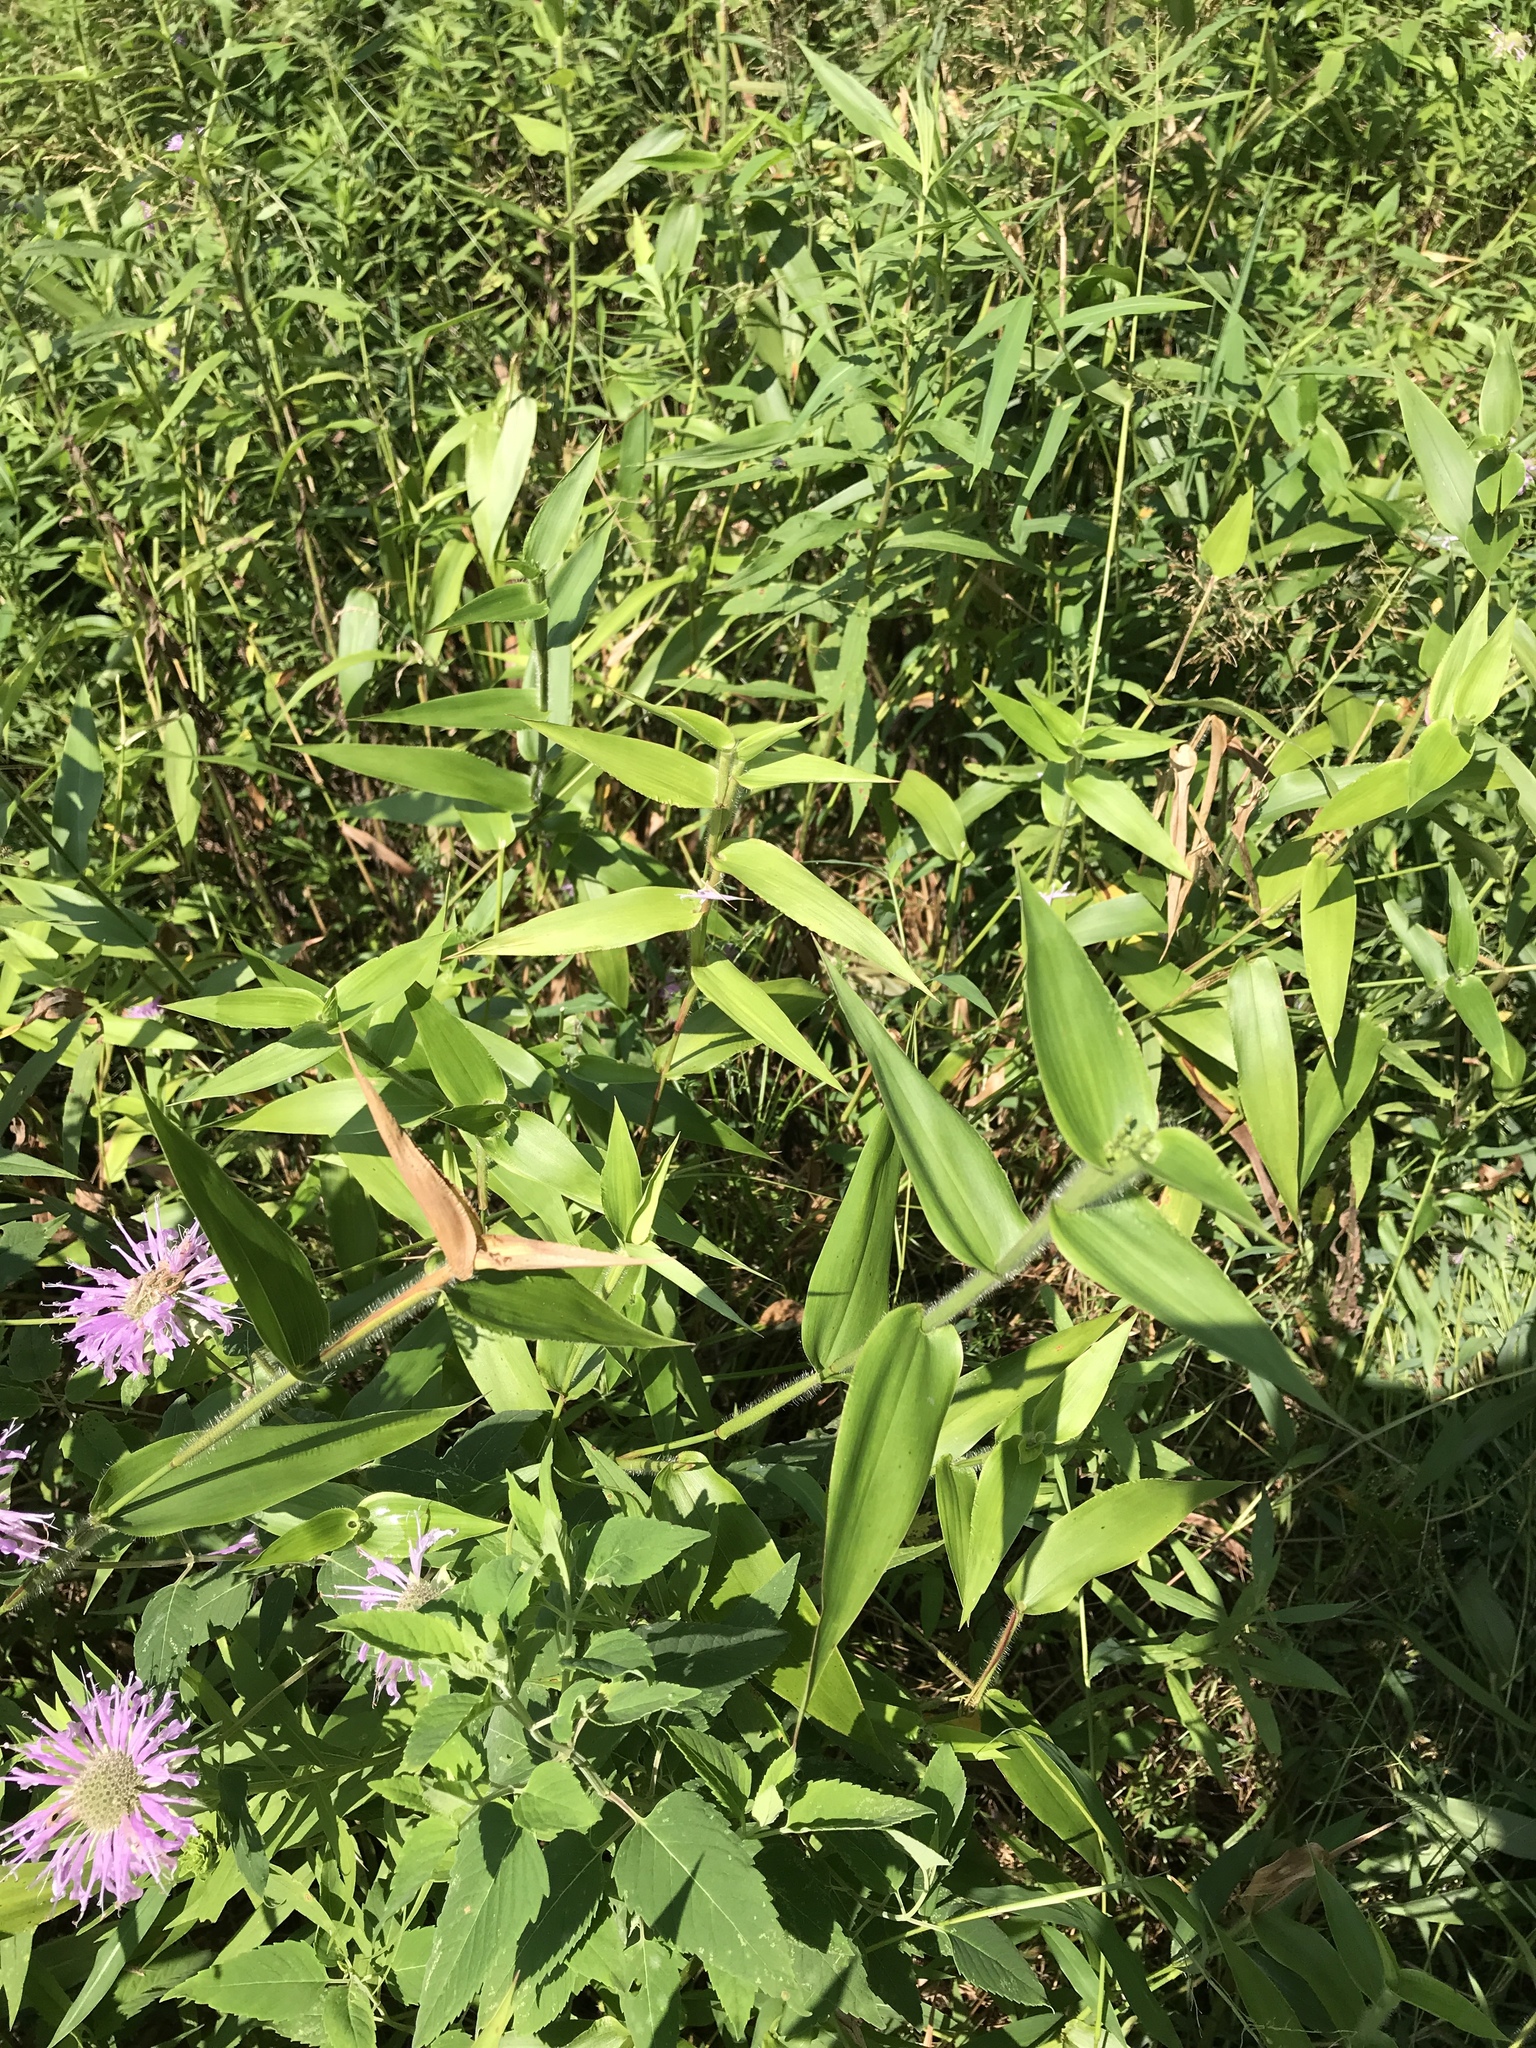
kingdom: Plantae
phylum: Tracheophyta
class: Liliopsida
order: Poales
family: Poaceae
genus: Dichanthelium
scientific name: Dichanthelium clandestinum
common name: Deer-tongue grass
